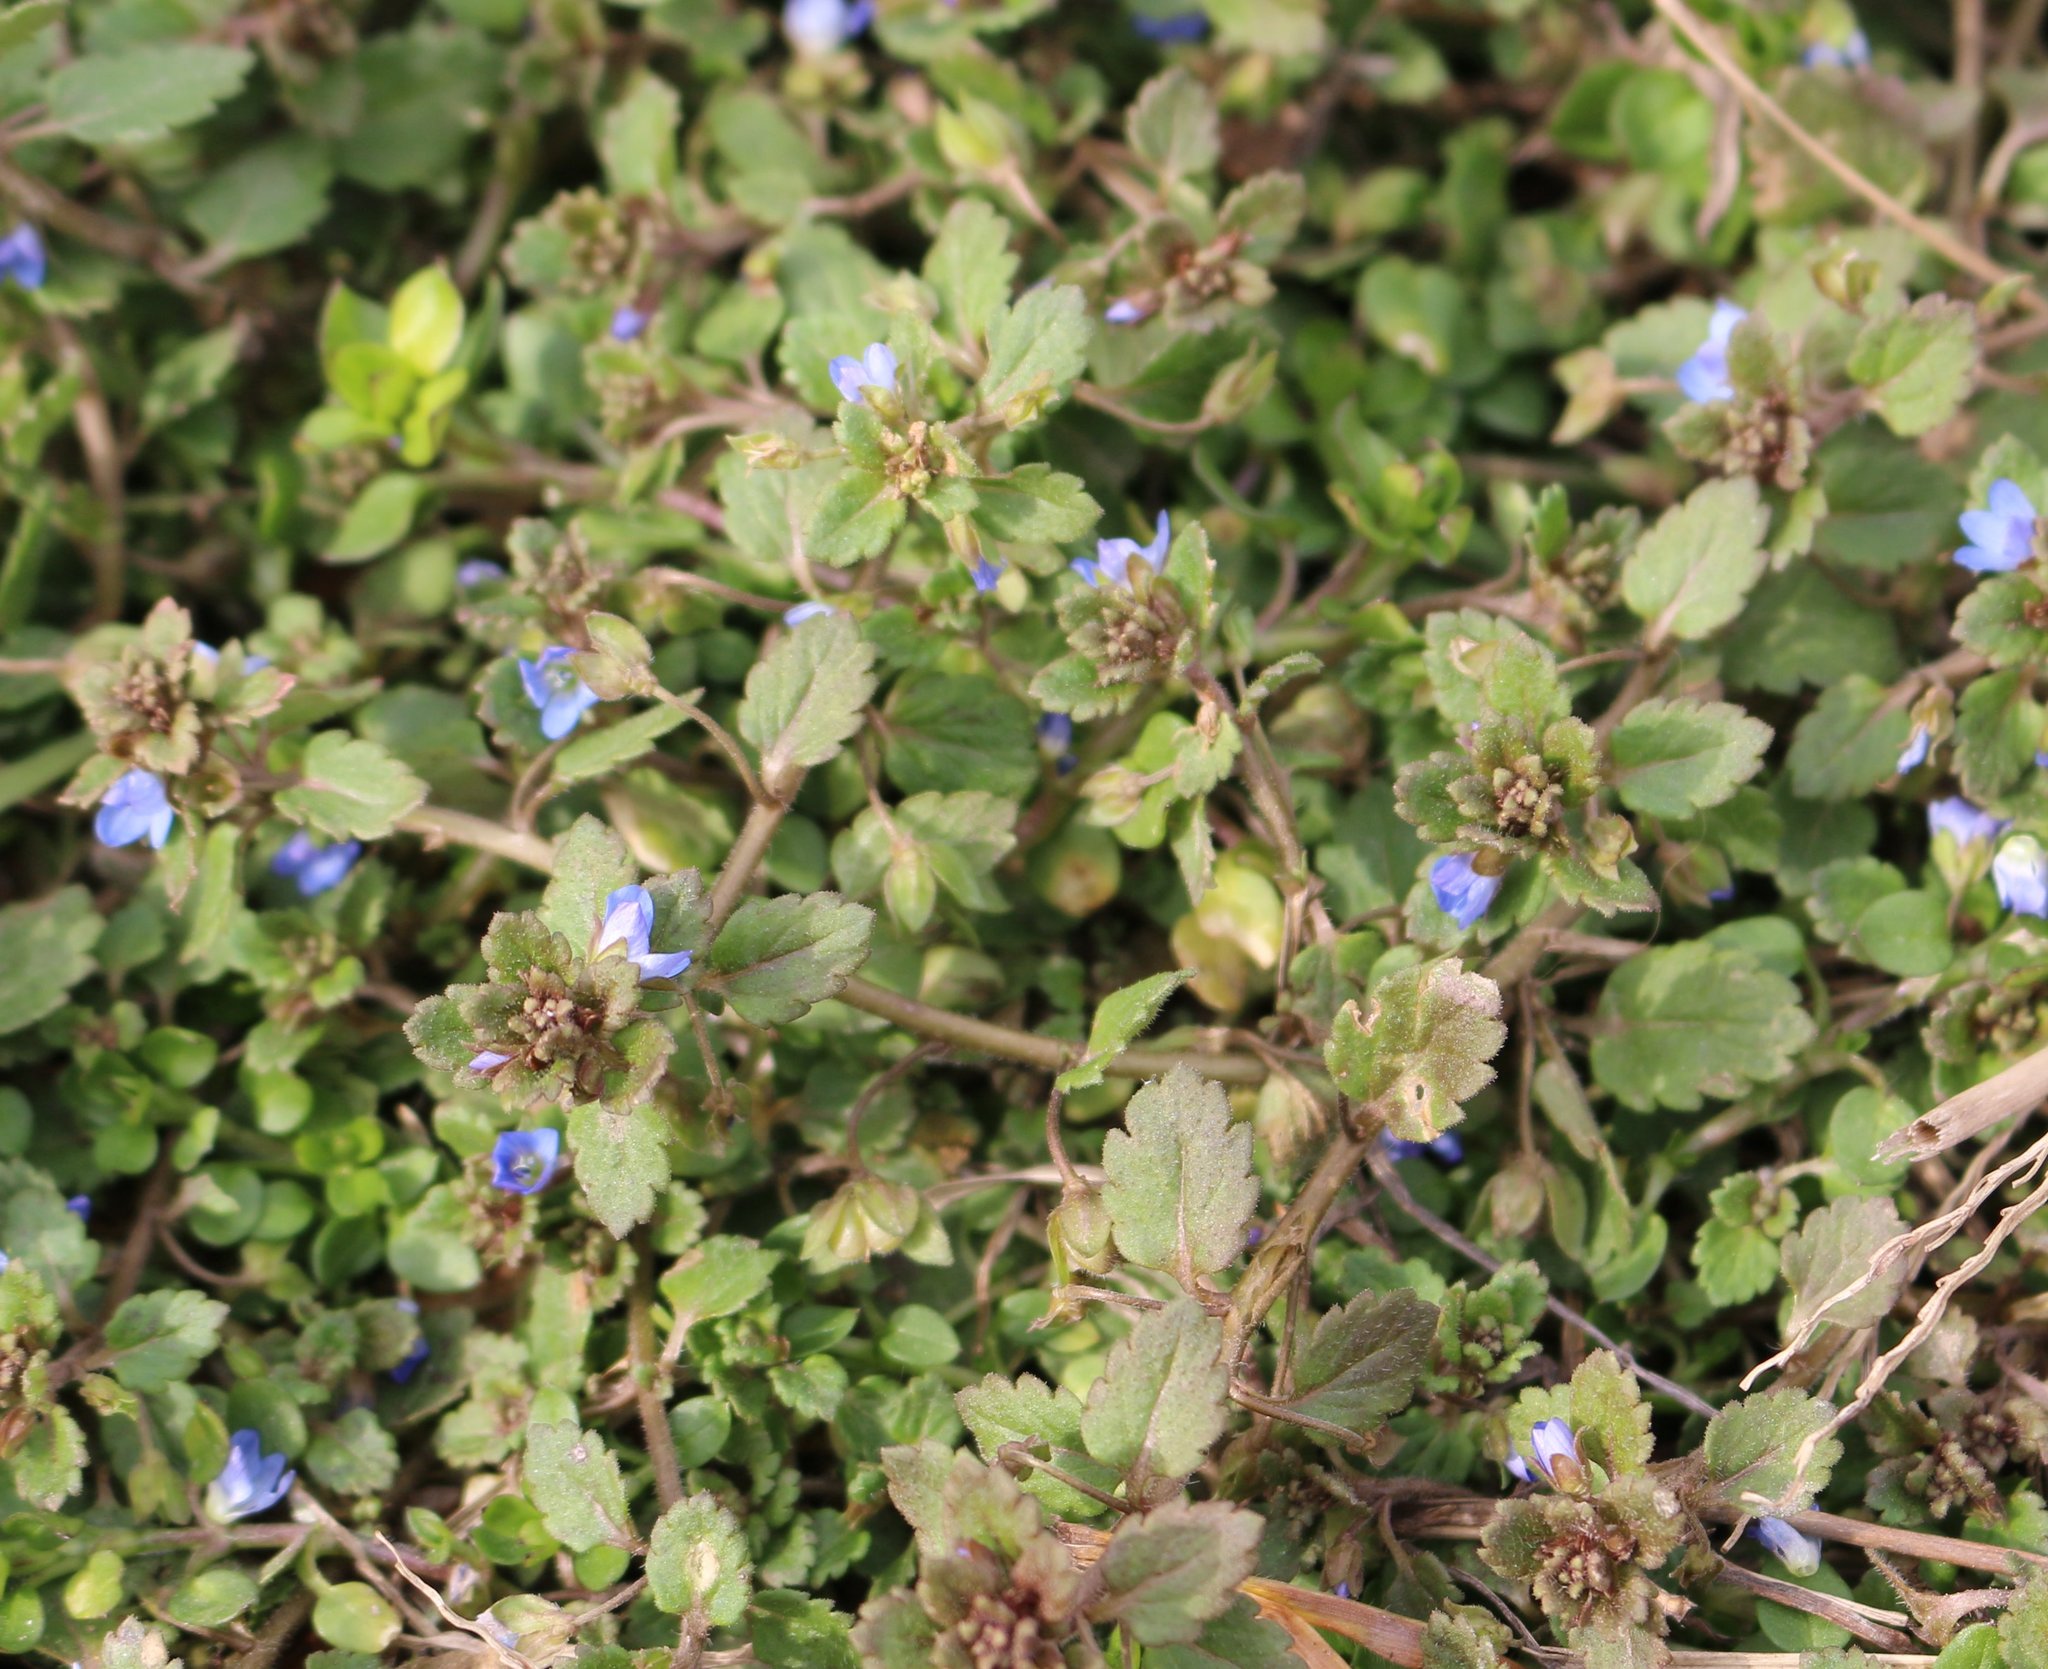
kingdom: Plantae
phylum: Tracheophyta
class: Magnoliopsida
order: Lamiales
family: Plantaginaceae
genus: Veronica
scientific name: Veronica polita
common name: Grey field-speedwell
